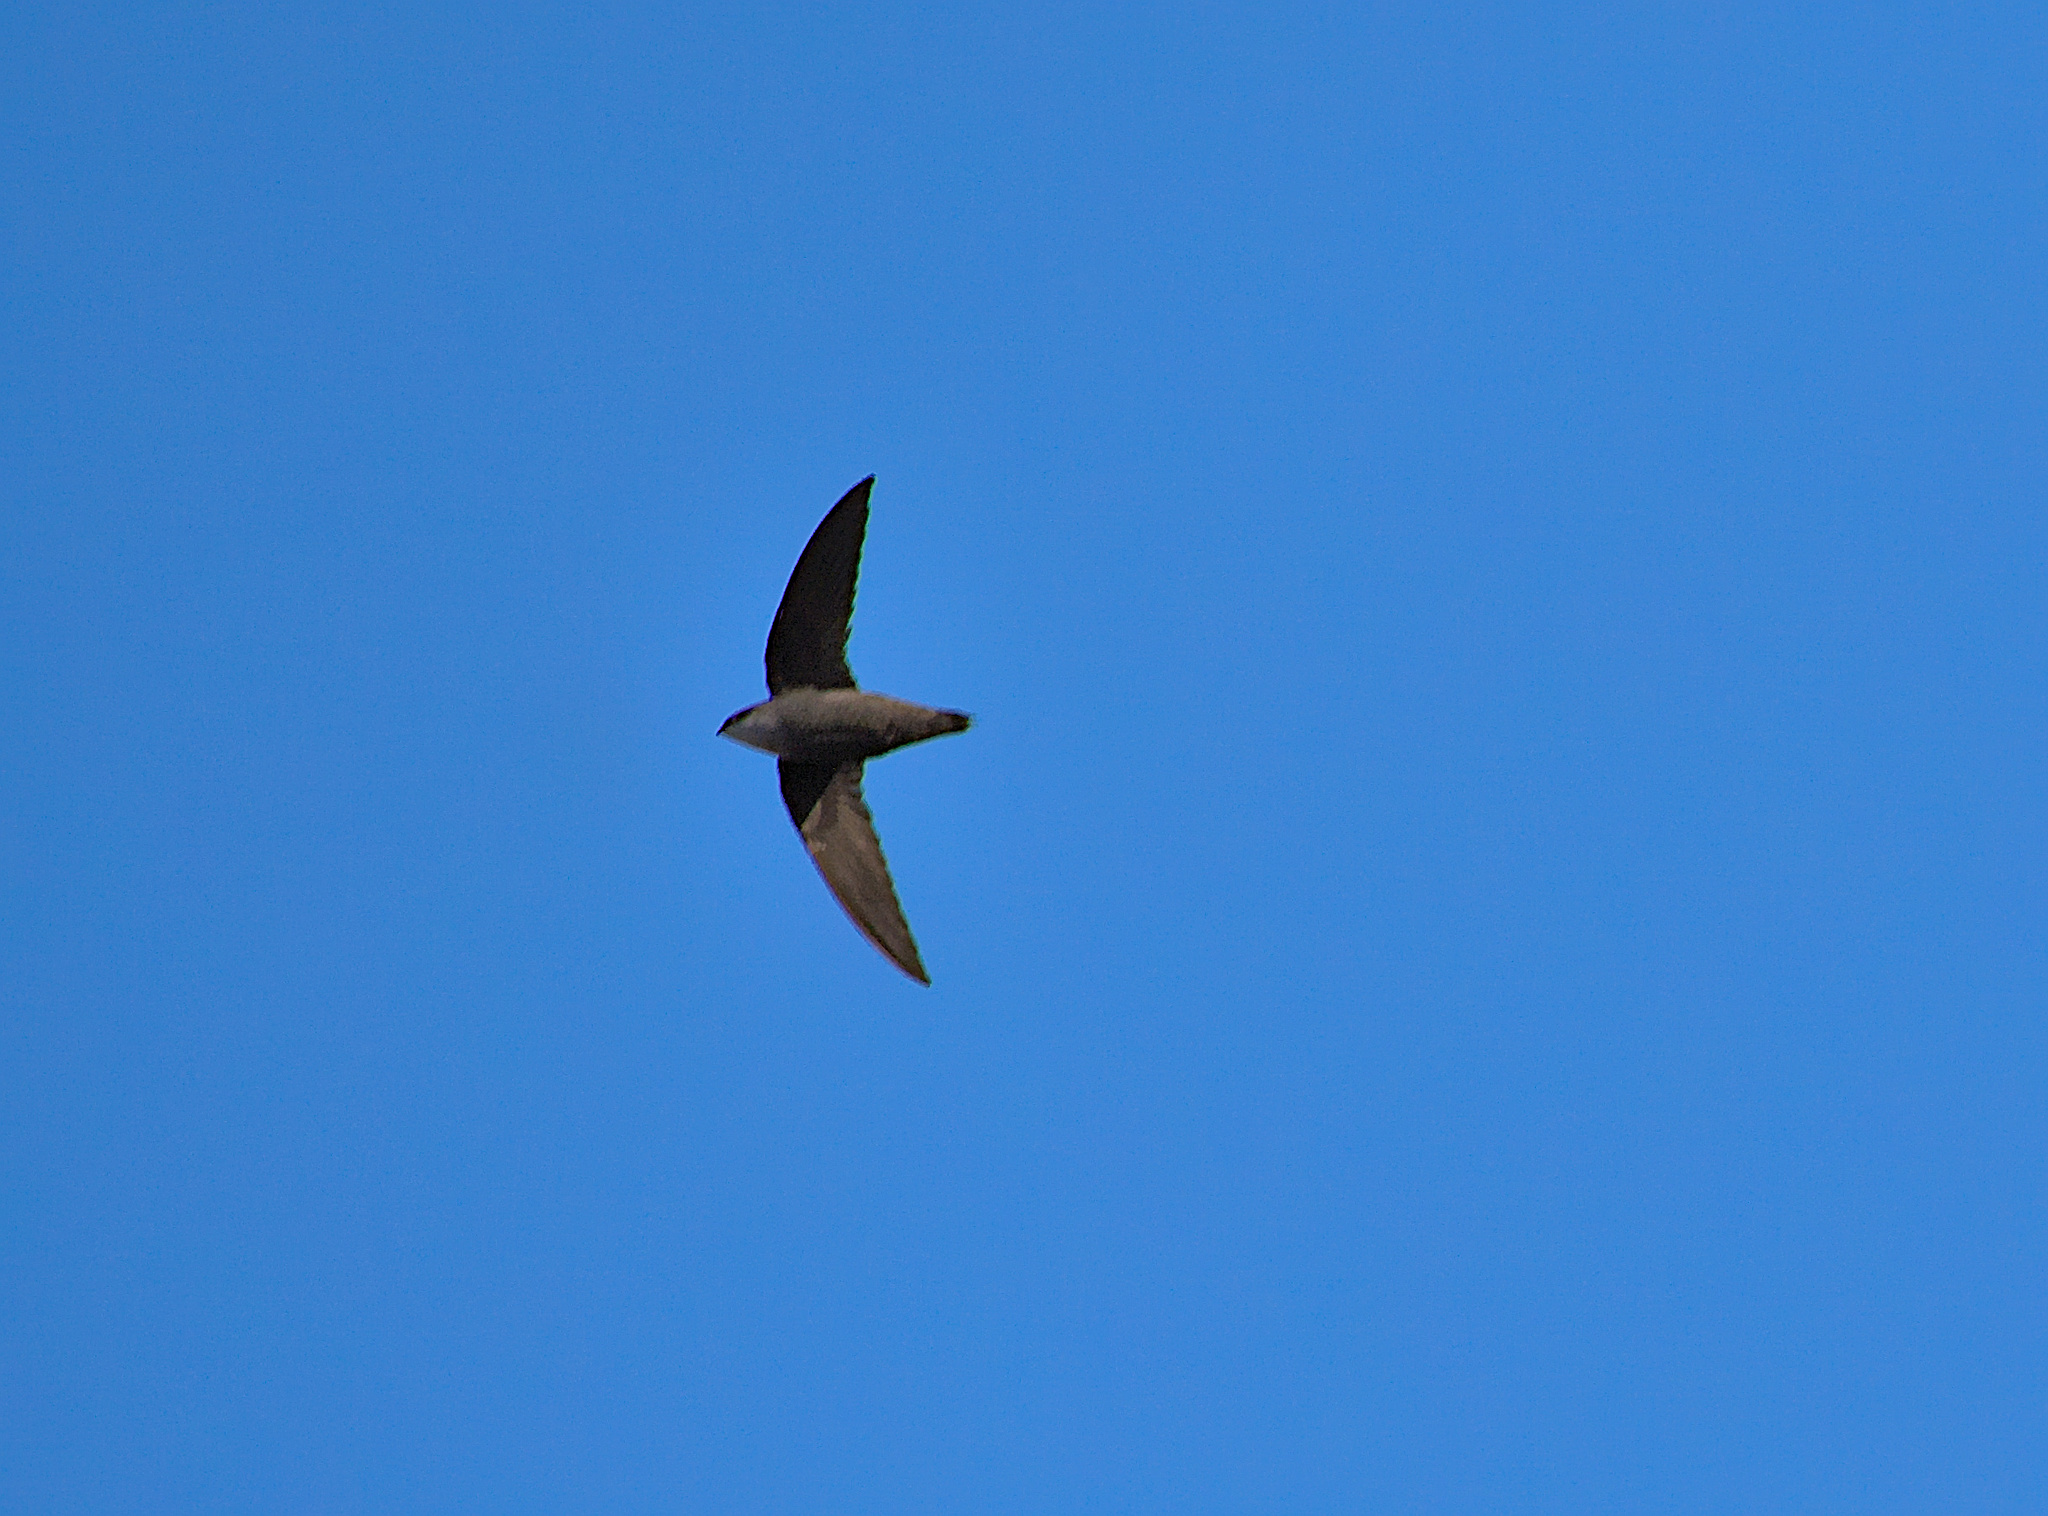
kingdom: Animalia
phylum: Chordata
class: Aves
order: Apodiformes
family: Apodidae
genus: Chaetura
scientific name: Chaetura pelagica
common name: Chimney swift
